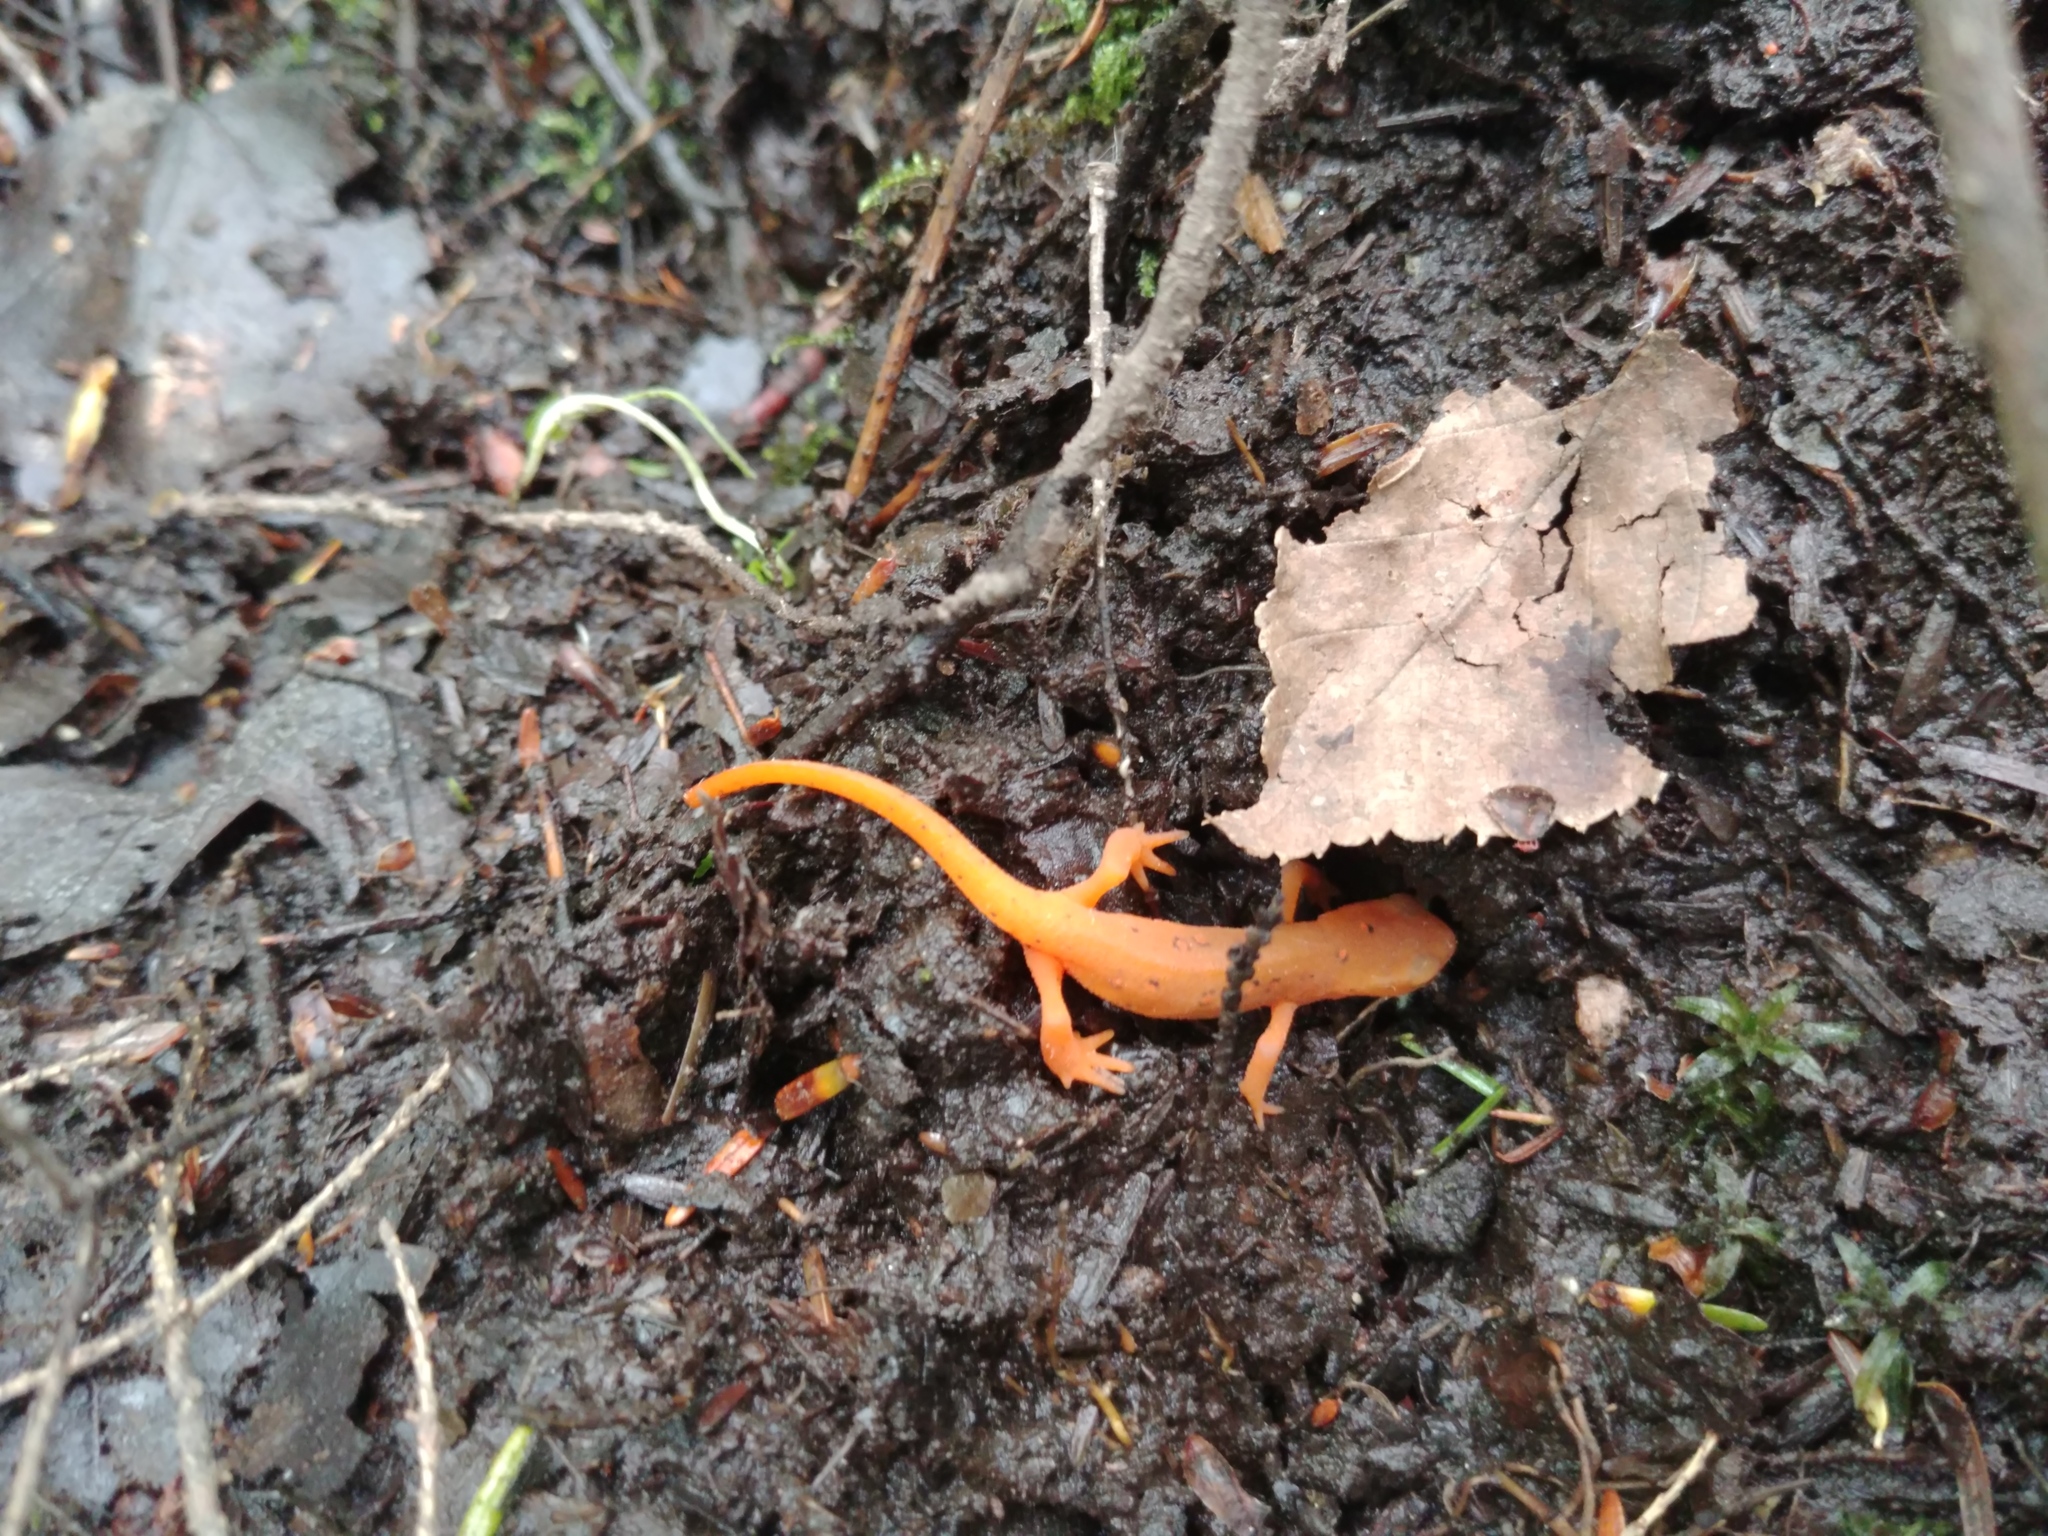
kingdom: Animalia
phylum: Chordata
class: Amphibia
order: Caudata
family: Salamandridae
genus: Notophthalmus
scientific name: Notophthalmus viridescens
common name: Eastern newt
